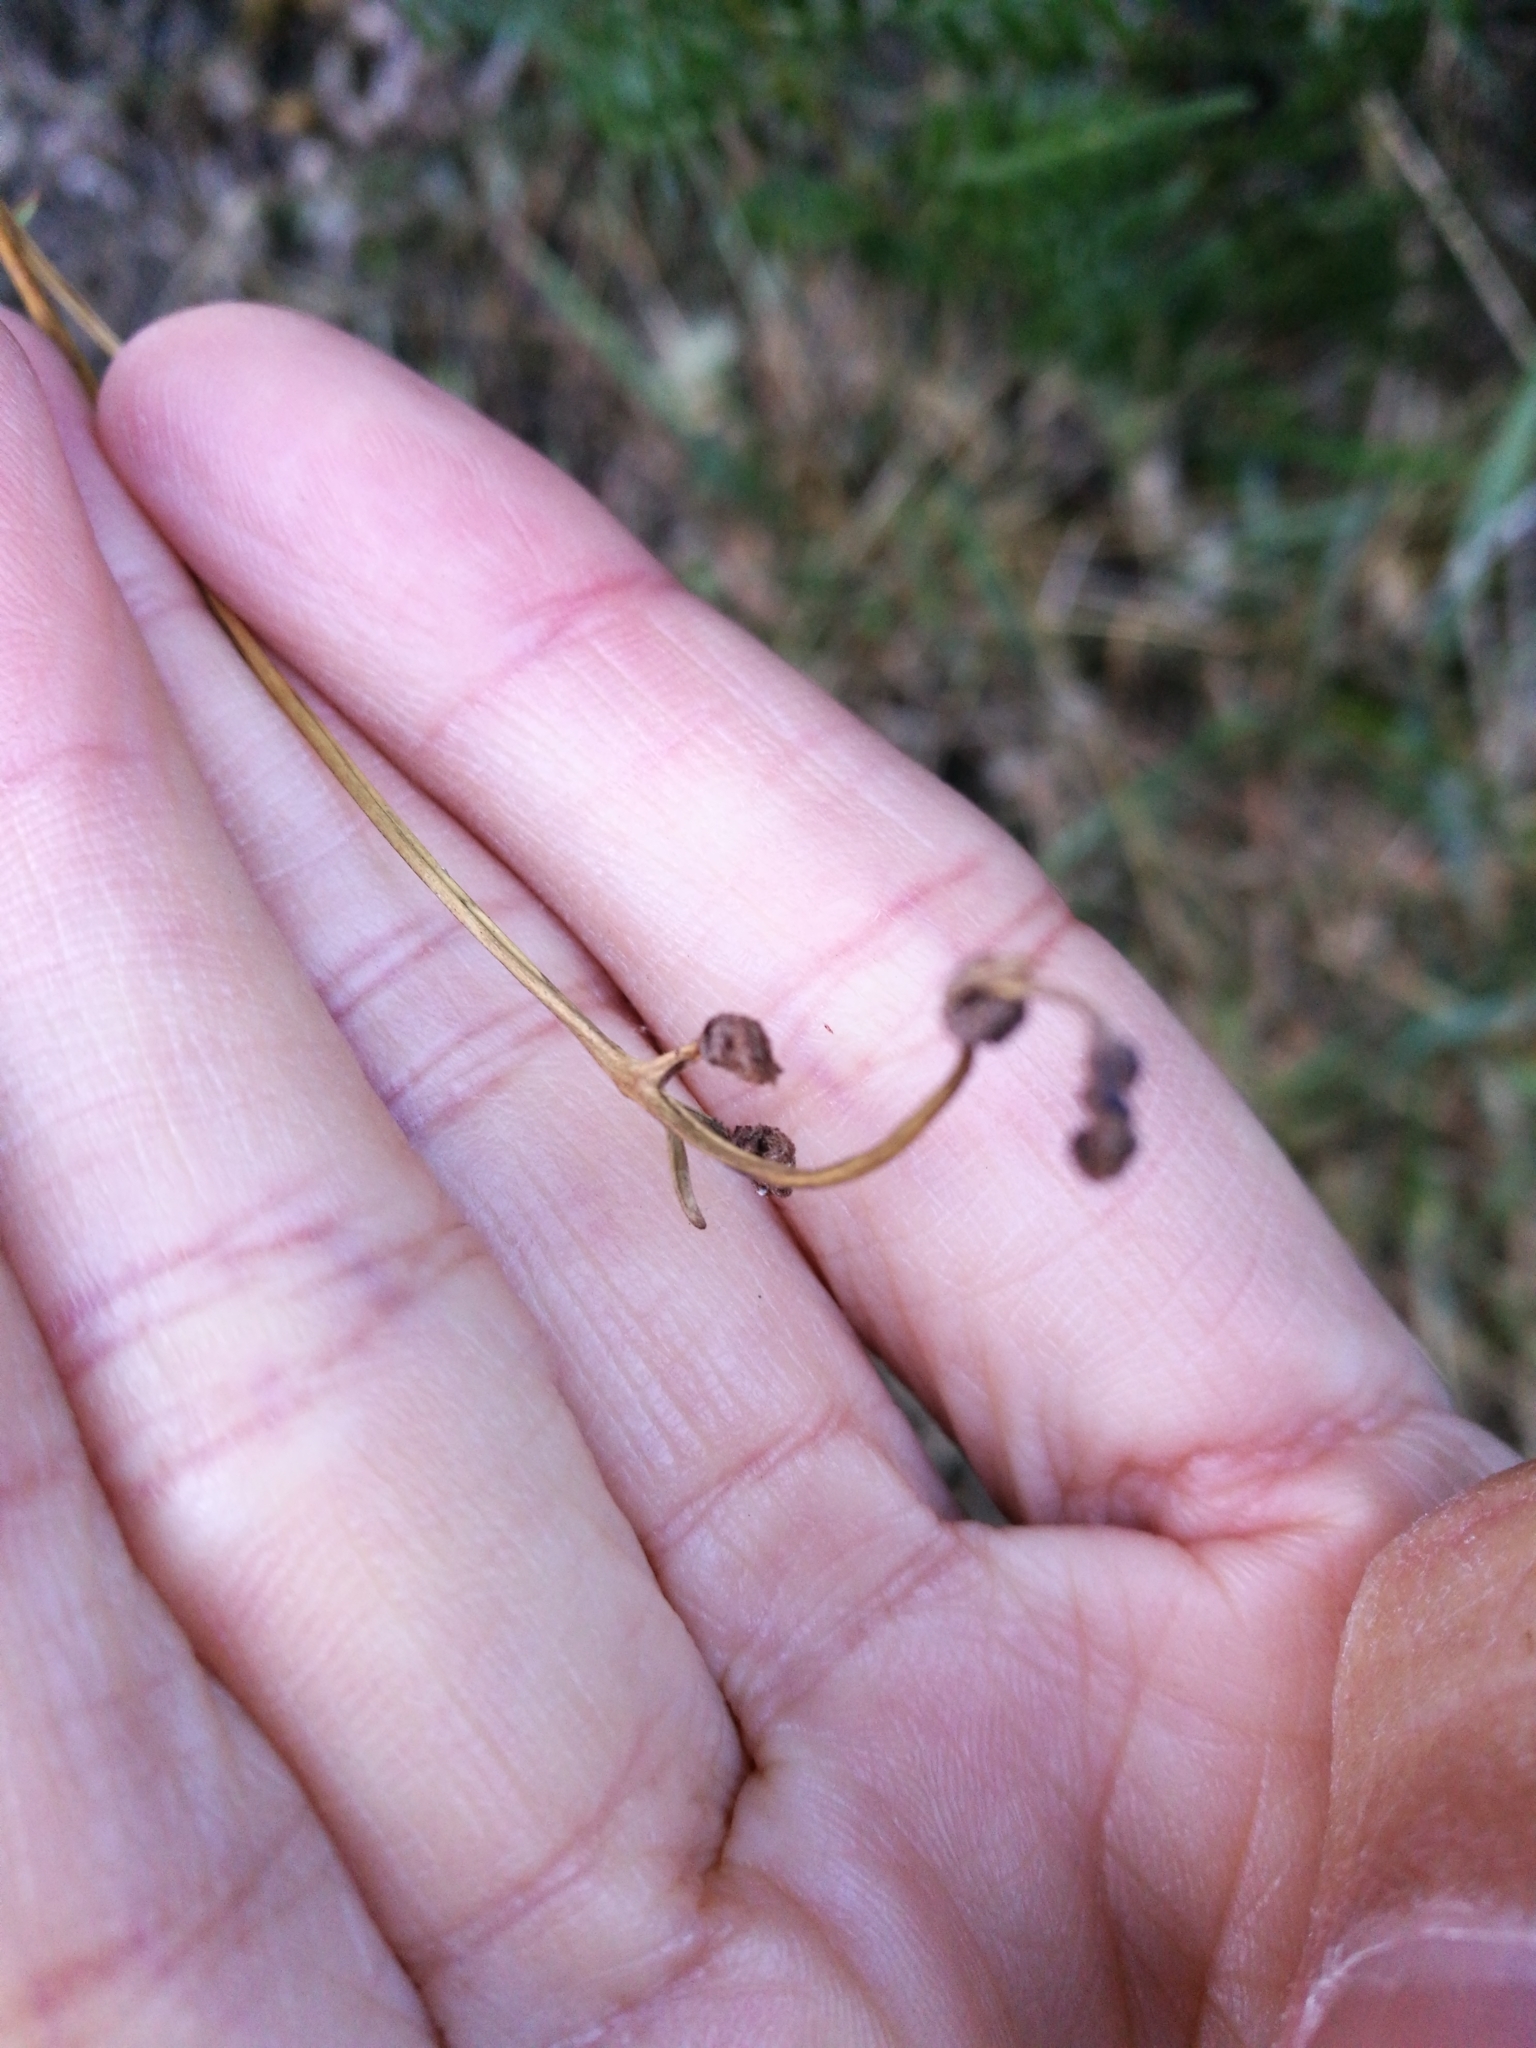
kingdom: Plantae
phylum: Tracheophyta
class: Polypodiopsida
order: Polypodiales
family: Dennstaedtiaceae
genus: Pteridium
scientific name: Pteridium esculentum
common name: Bracken fern
